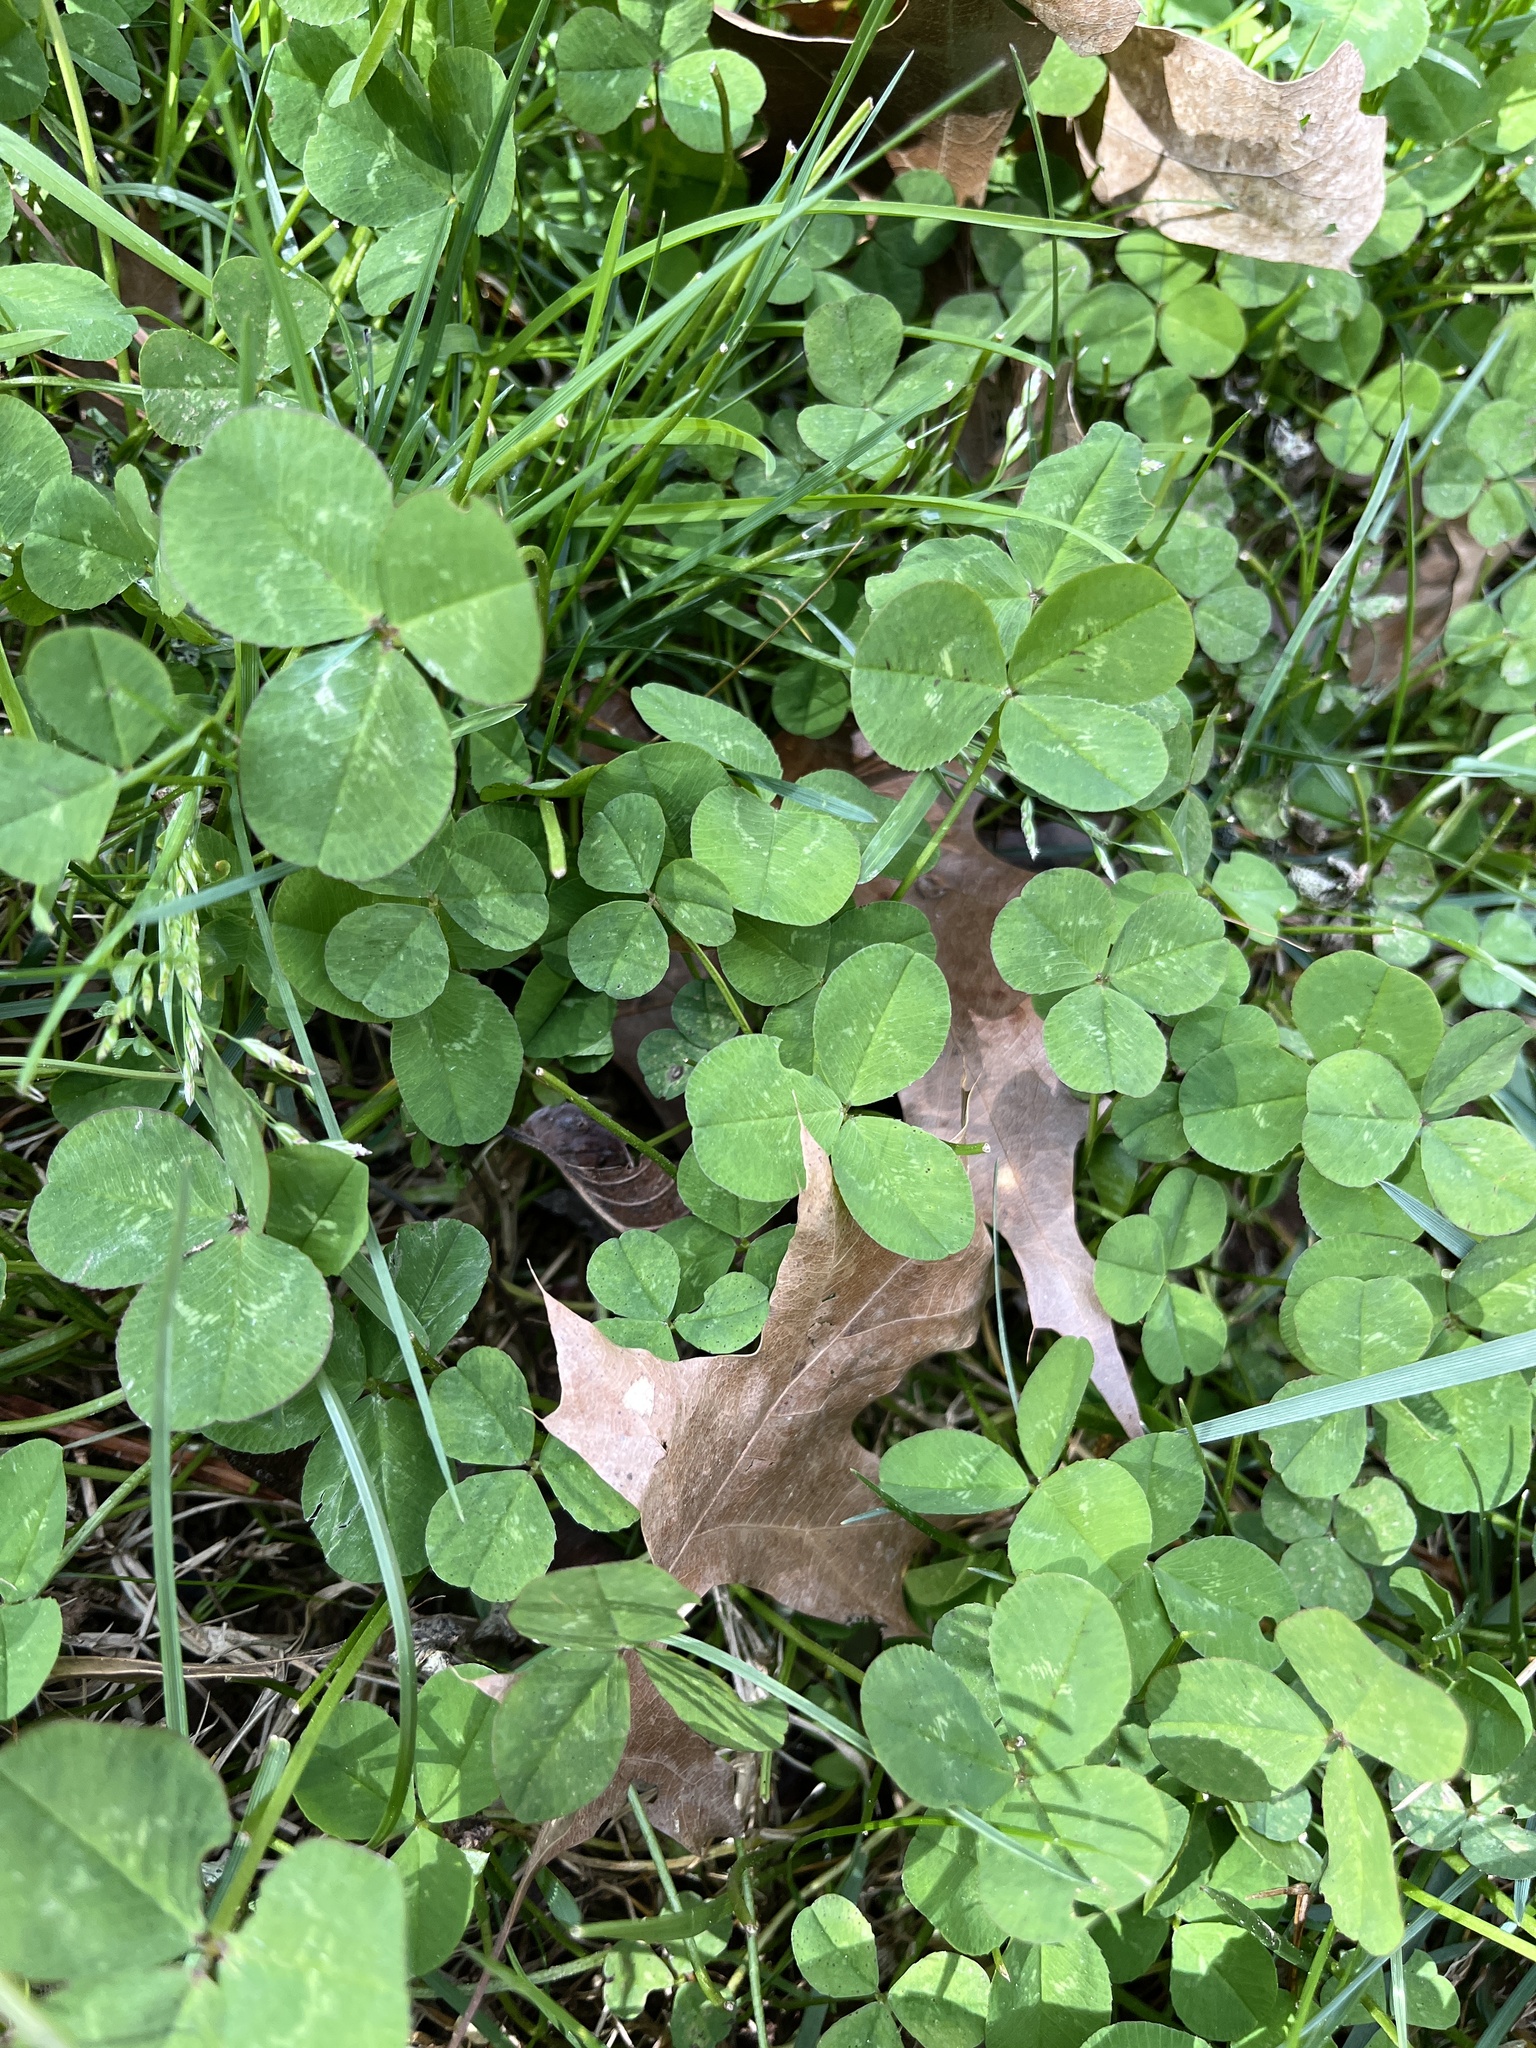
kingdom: Plantae
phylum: Tracheophyta
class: Magnoliopsida
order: Fabales
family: Fabaceae
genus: Trifolium
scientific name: Trifolium repens
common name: White clover
